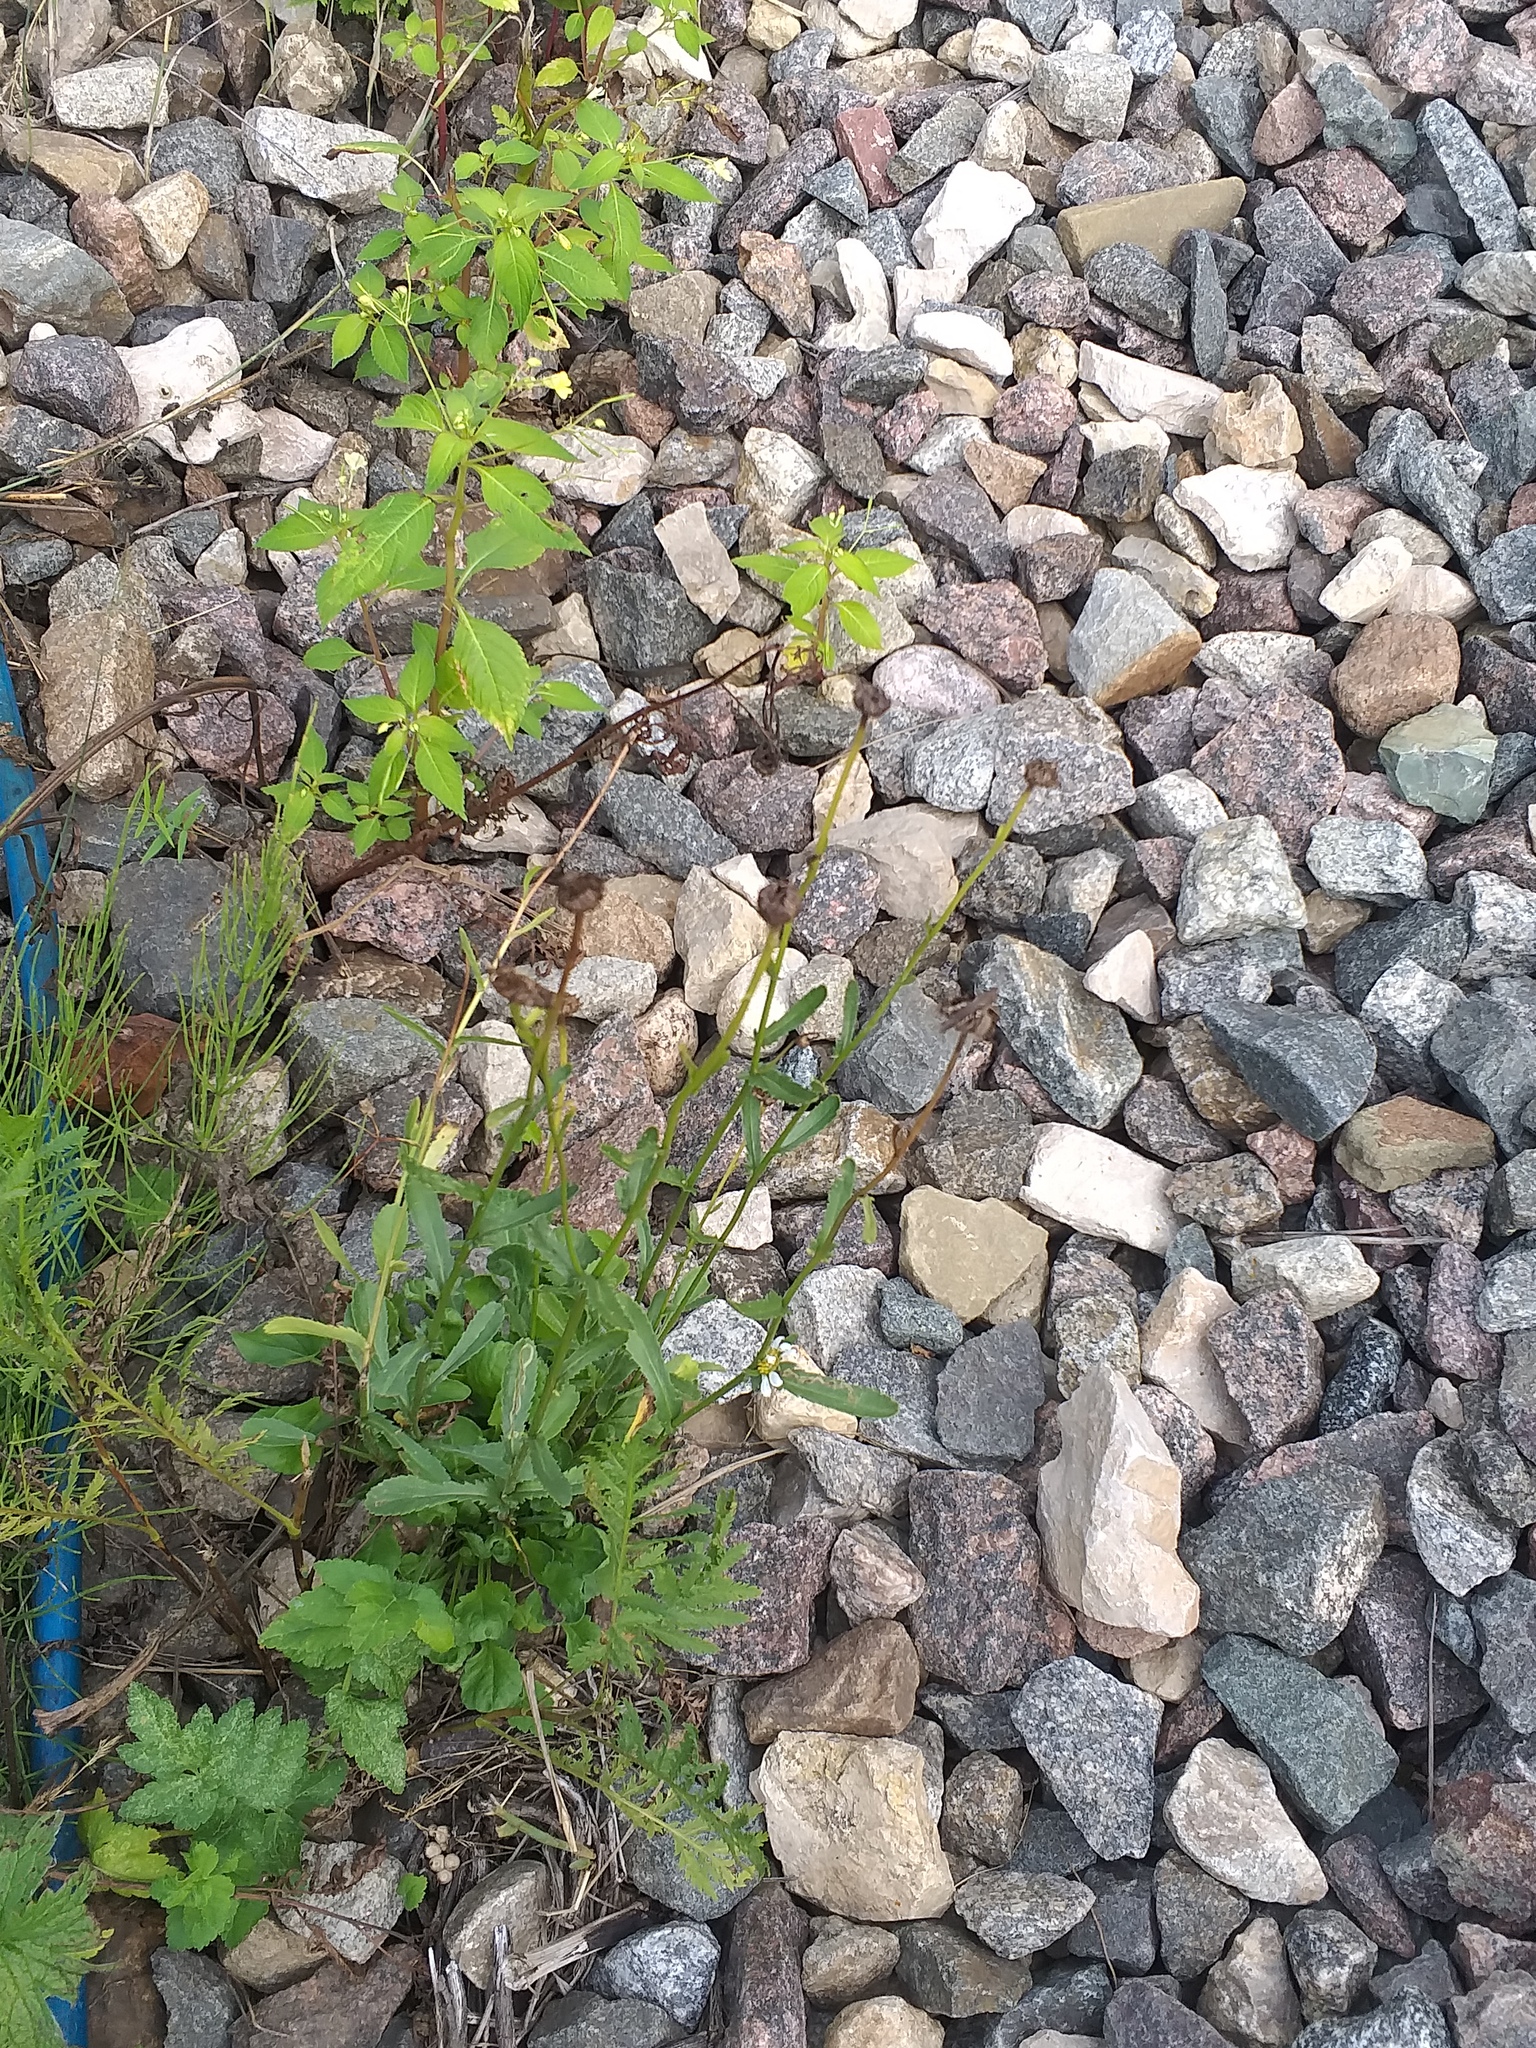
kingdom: Plantae
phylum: Tracheophyta
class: Magnoliopsida
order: Asterales
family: Asteraceae
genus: Leucanthemum
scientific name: Leucanthemum vulgare
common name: Oxeye daisy
